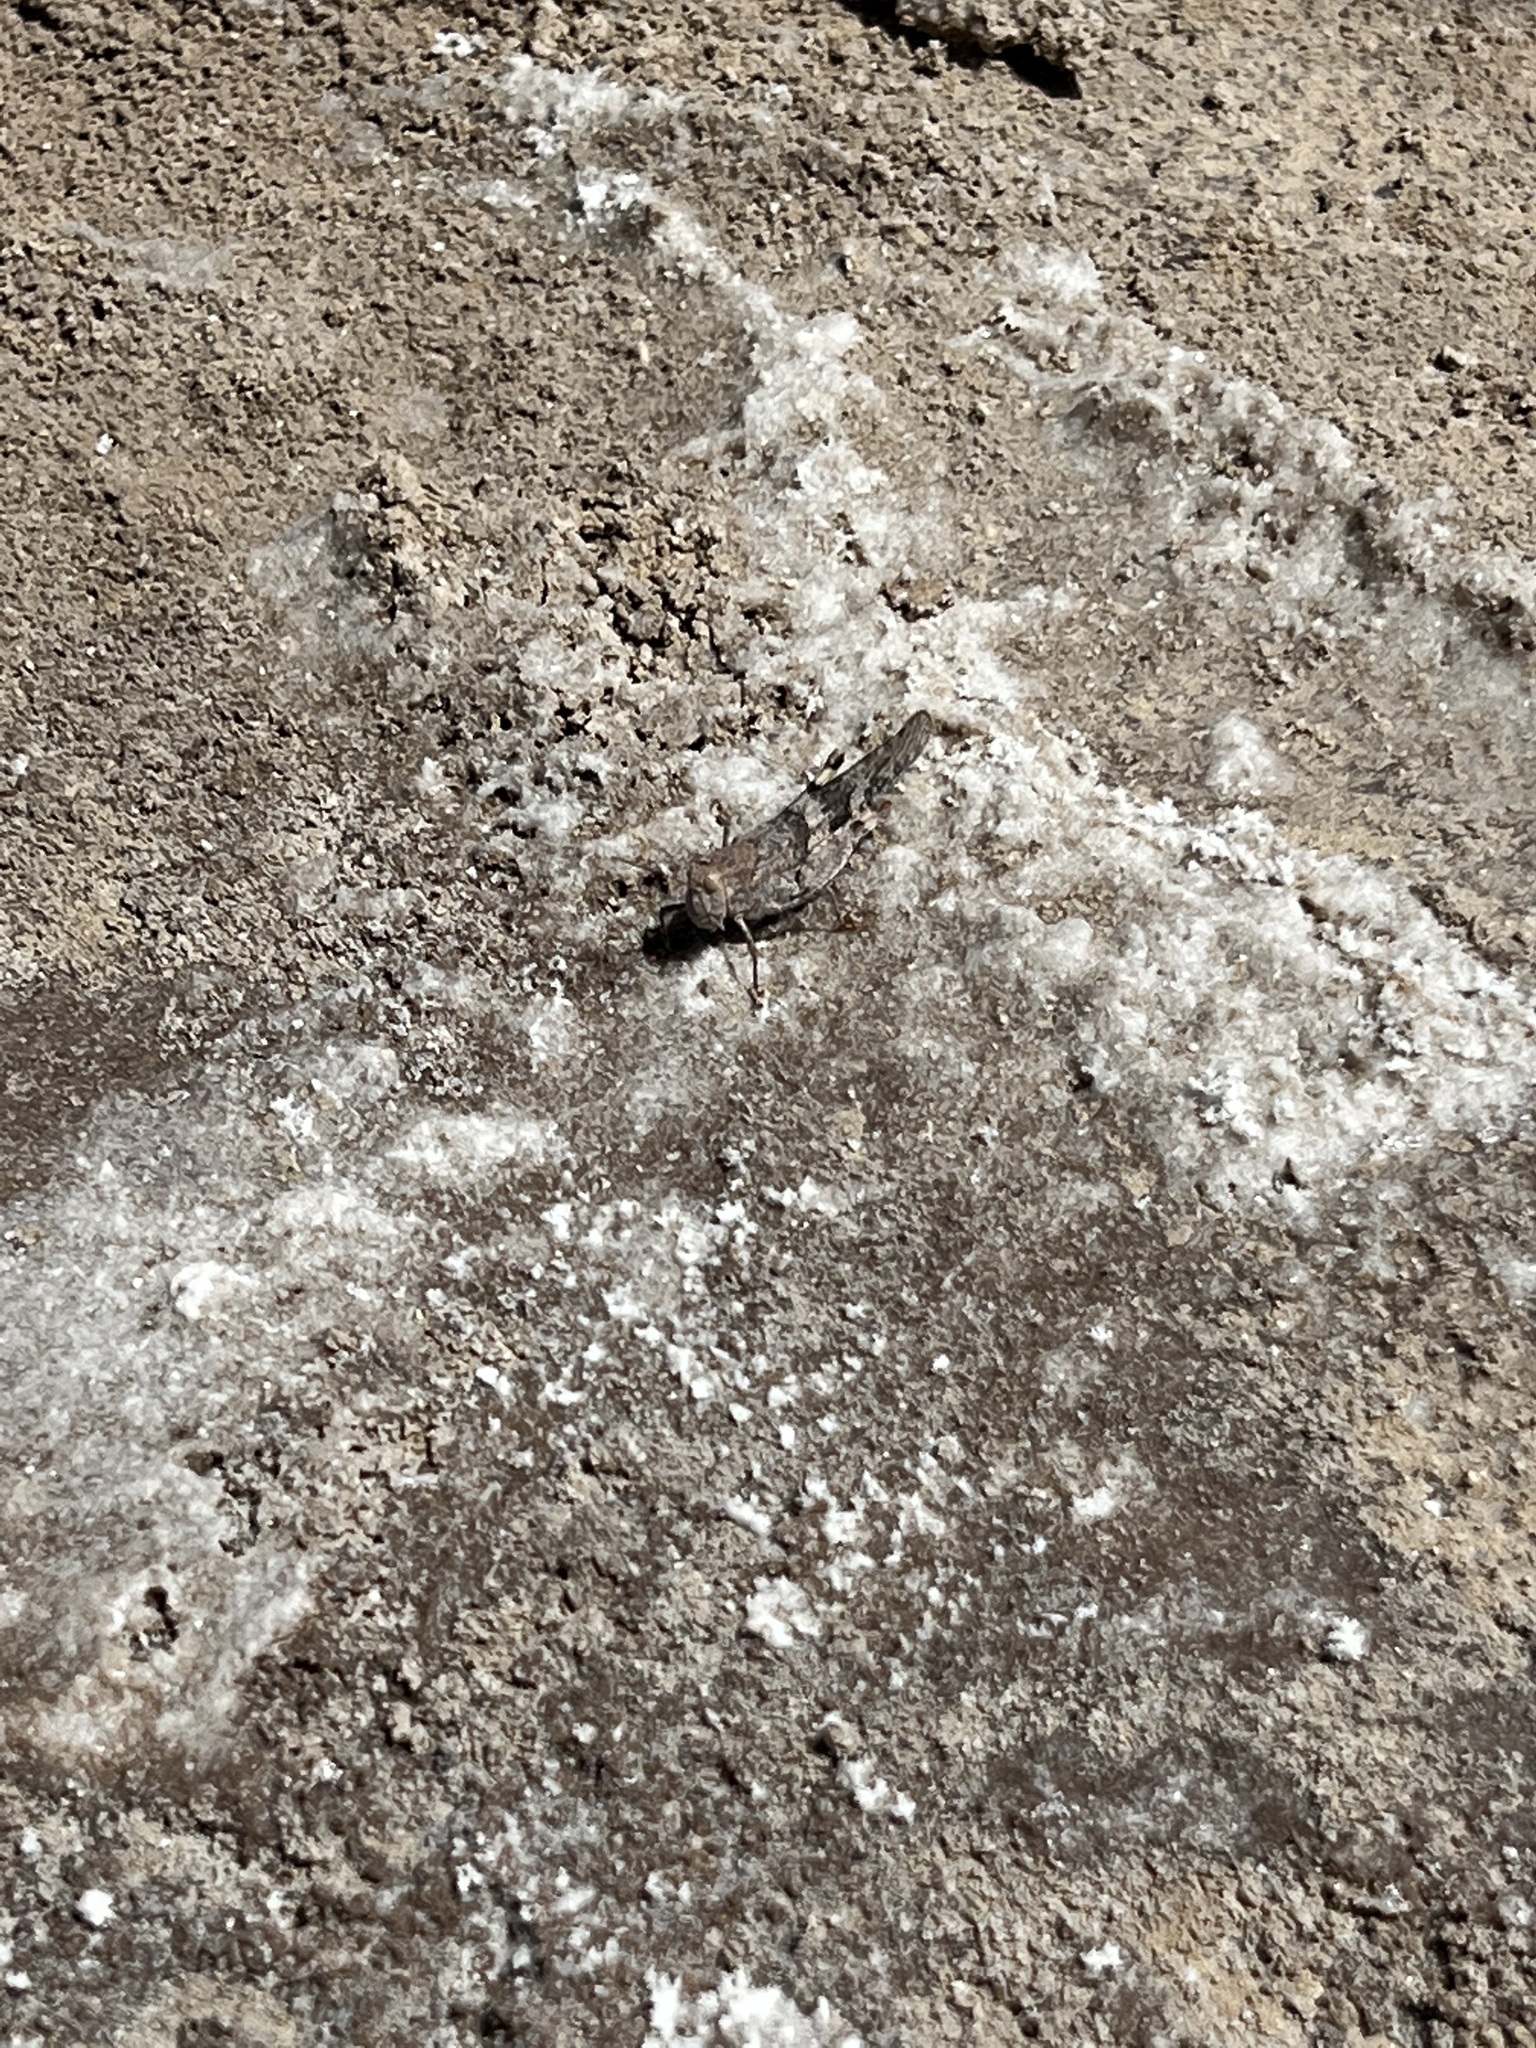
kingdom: Animalia
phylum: Arthropoda
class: Insecta
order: Orthoptera
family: Acrididae
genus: Trimerotropis
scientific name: Trimerotropis pallidipennis
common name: Pallid-winged grasshopper
